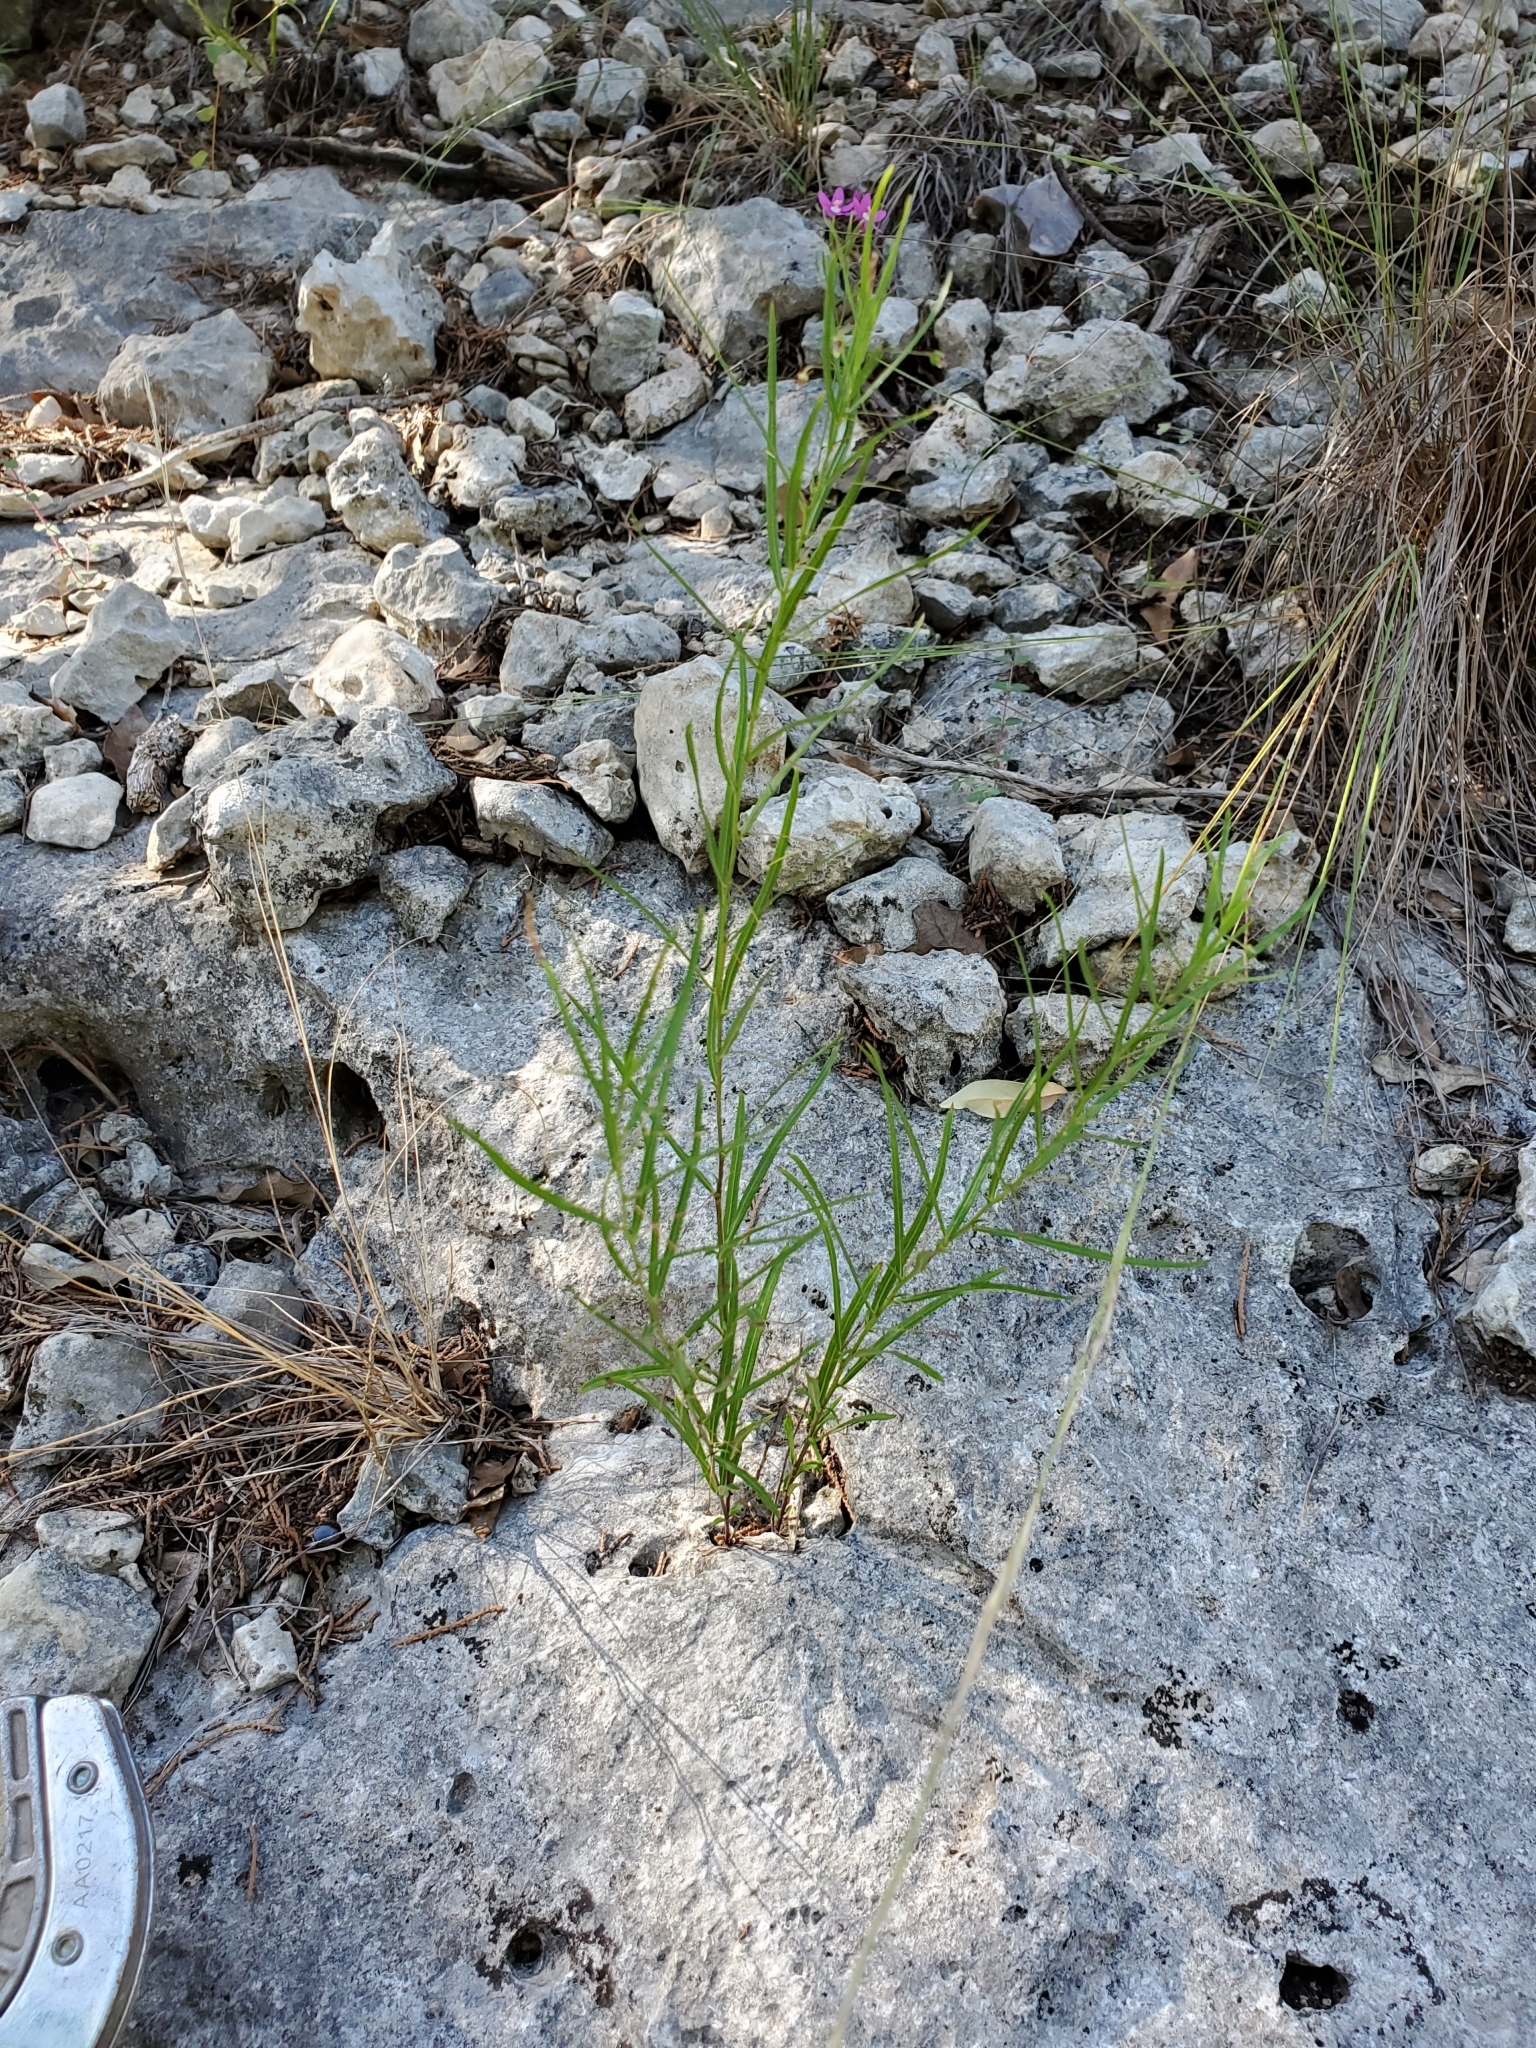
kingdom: Plantae
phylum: Tracheophyta
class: Magnoliopsida
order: Malpighiales
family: Violaceae
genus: Pombalia
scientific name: Pombalia verticillata
